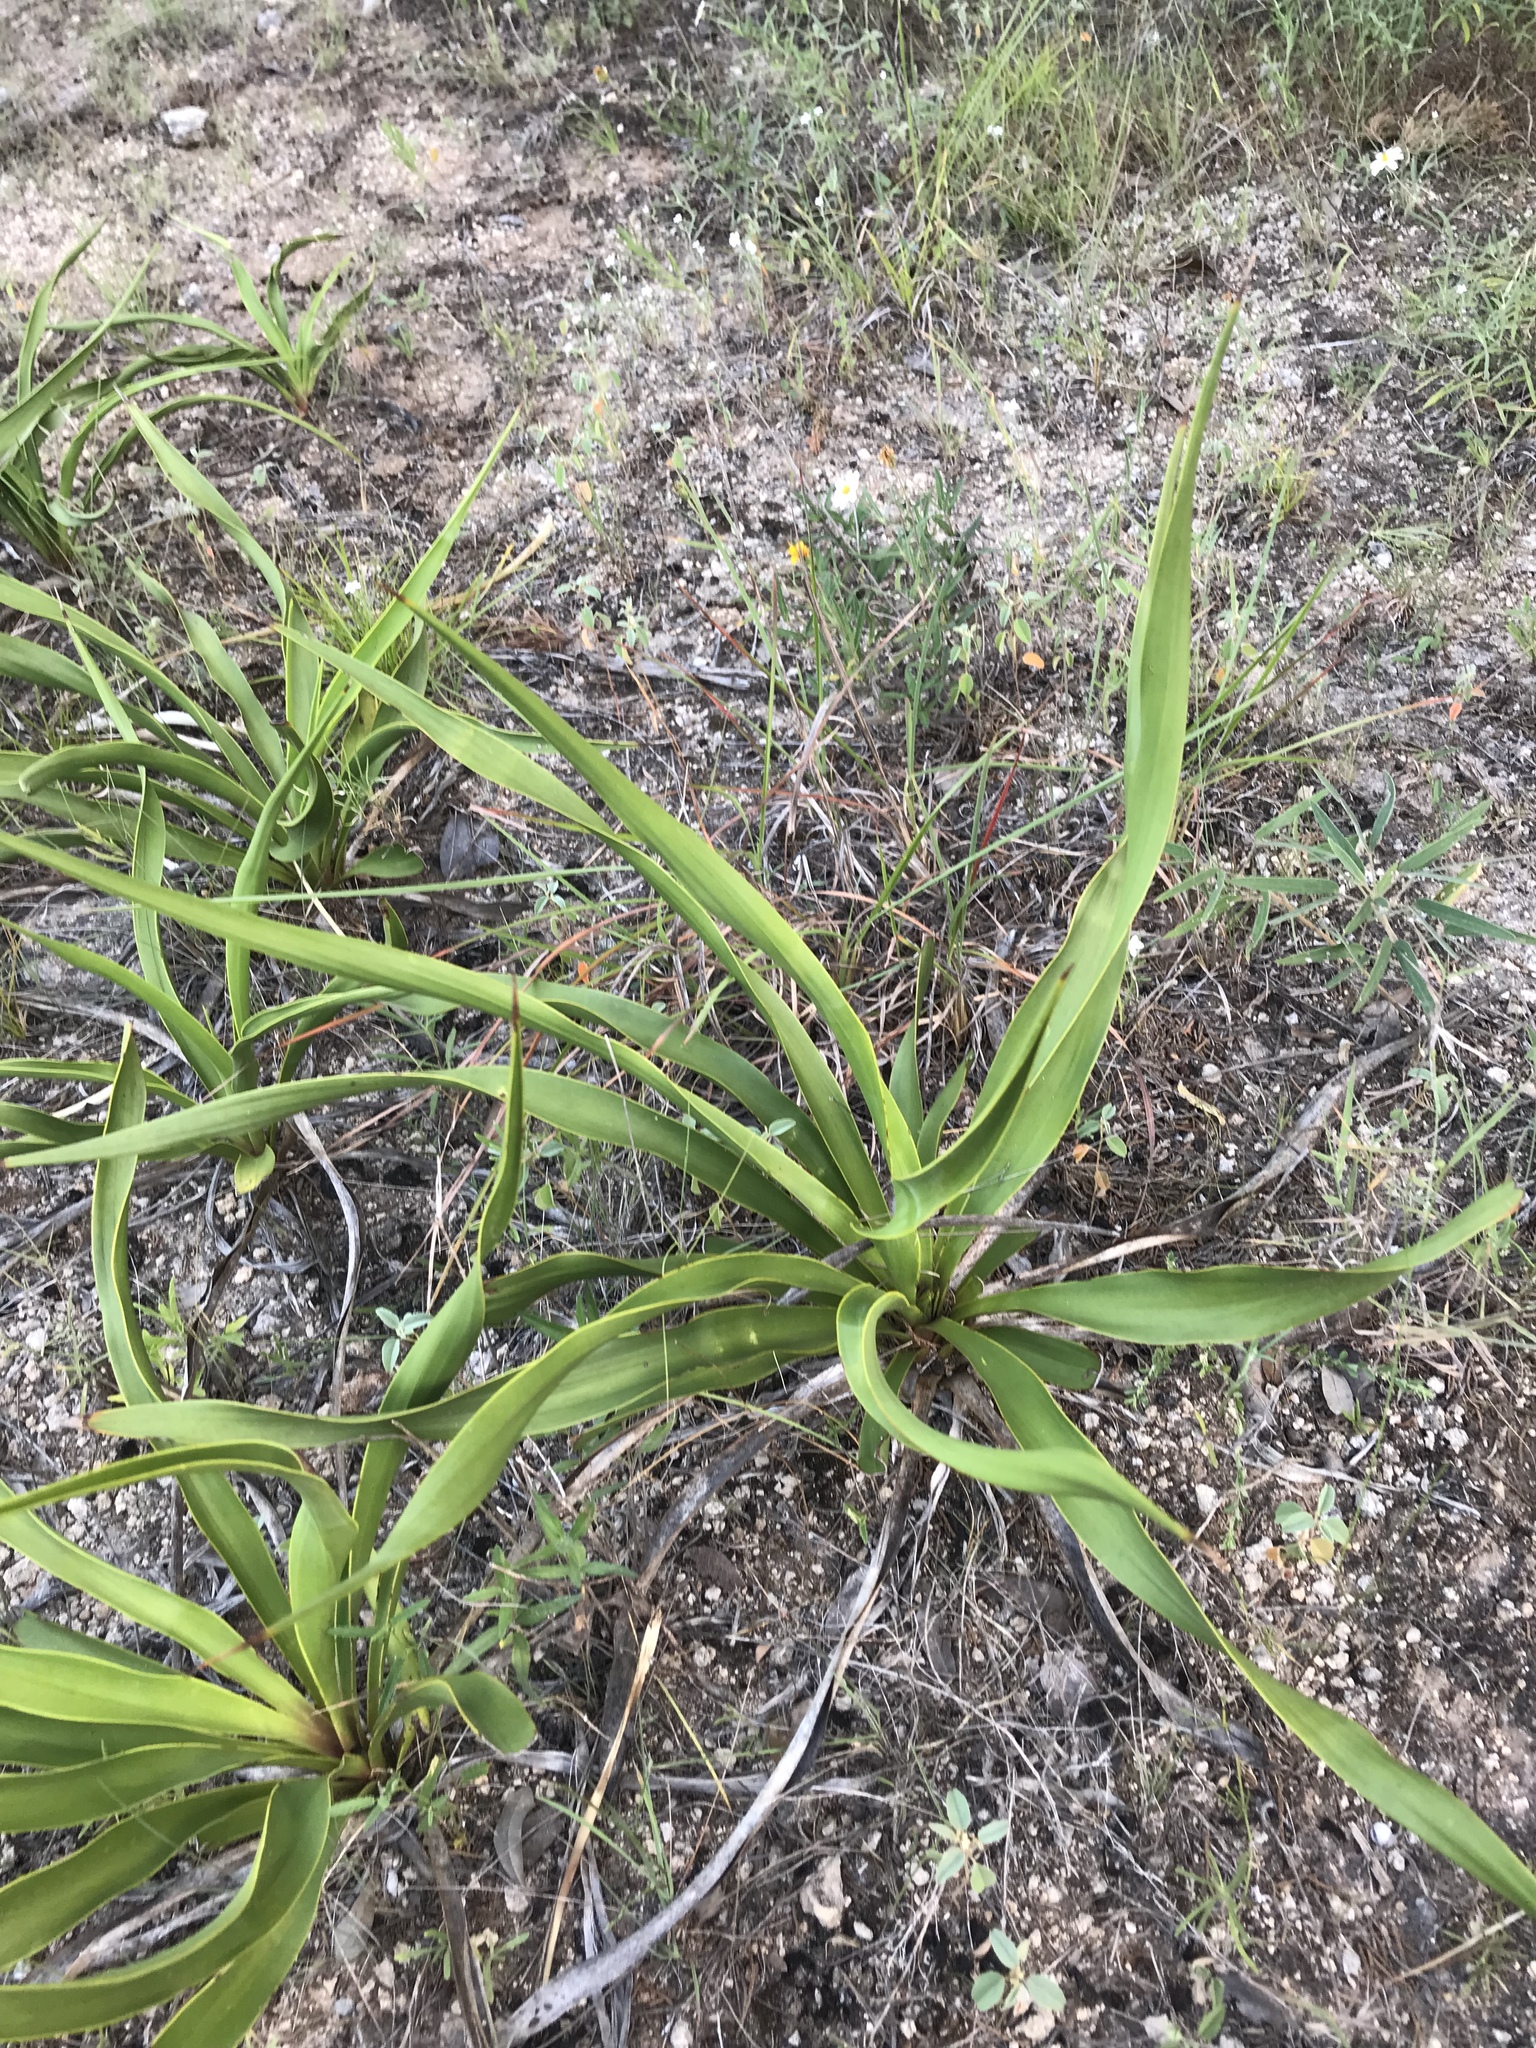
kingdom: Plantae
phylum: Tracheophyta
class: Liliopsida
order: Asparagales
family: Asparagaceae
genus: Yucca
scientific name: Yucca rupicola
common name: Twisted-leaf spanish-dagger
